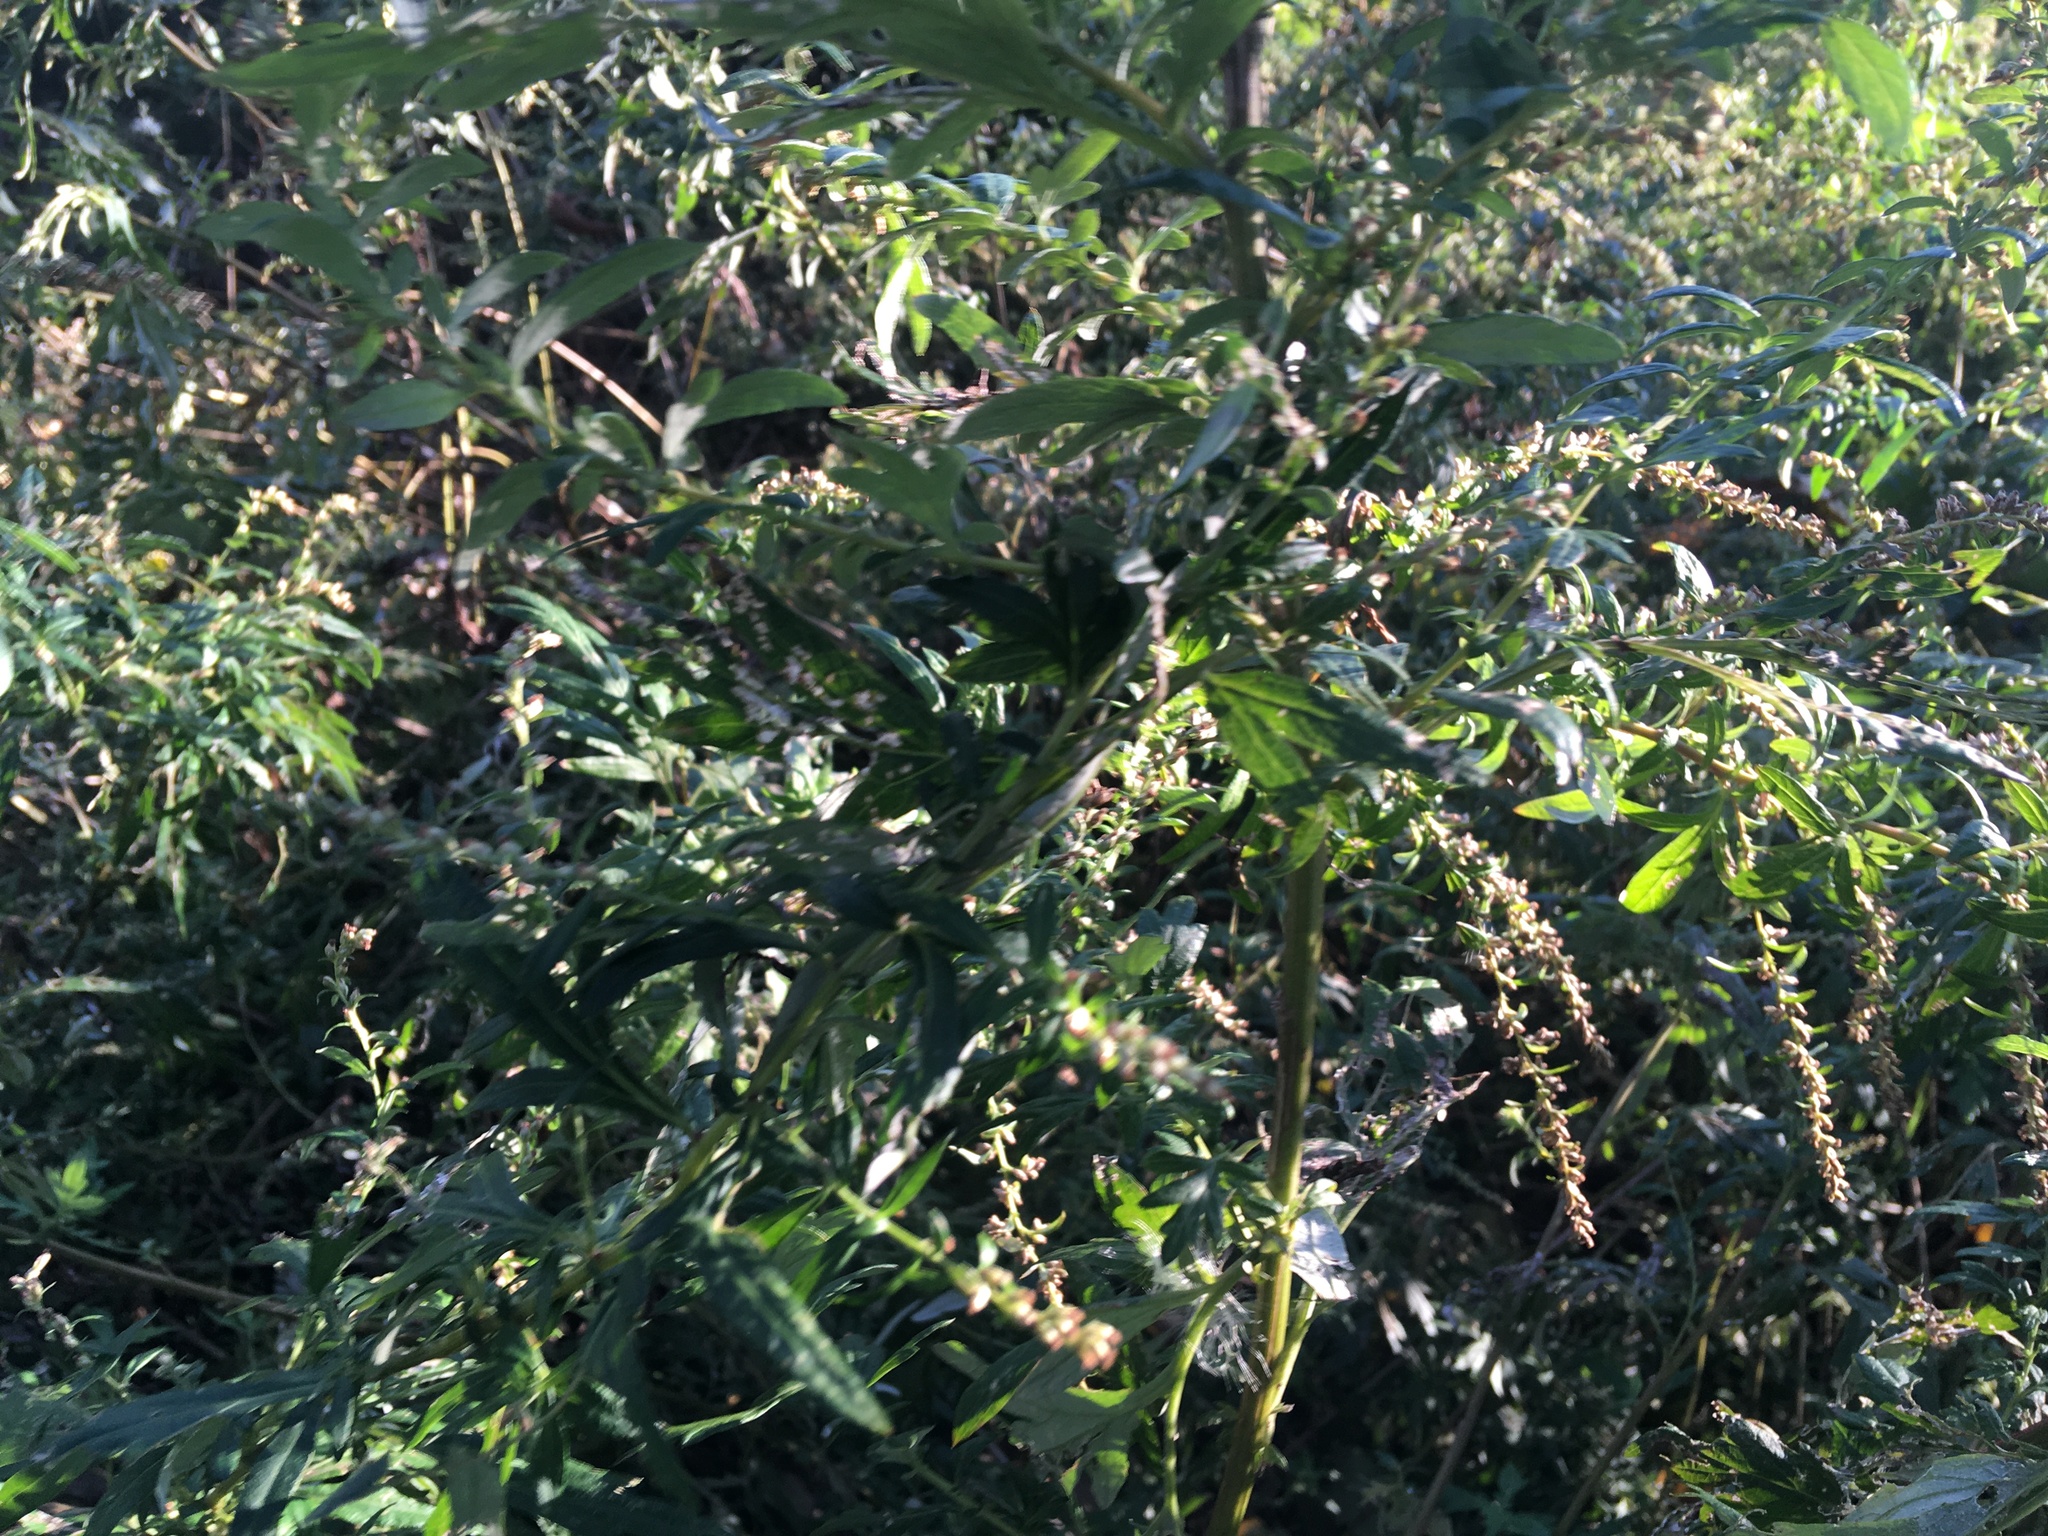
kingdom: Plantae
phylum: Tracheophyta
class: Magnoliopsida
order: Asterales
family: Asteraceae
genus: Artemisia
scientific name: Artemisia vulgaris
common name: Mugwort
